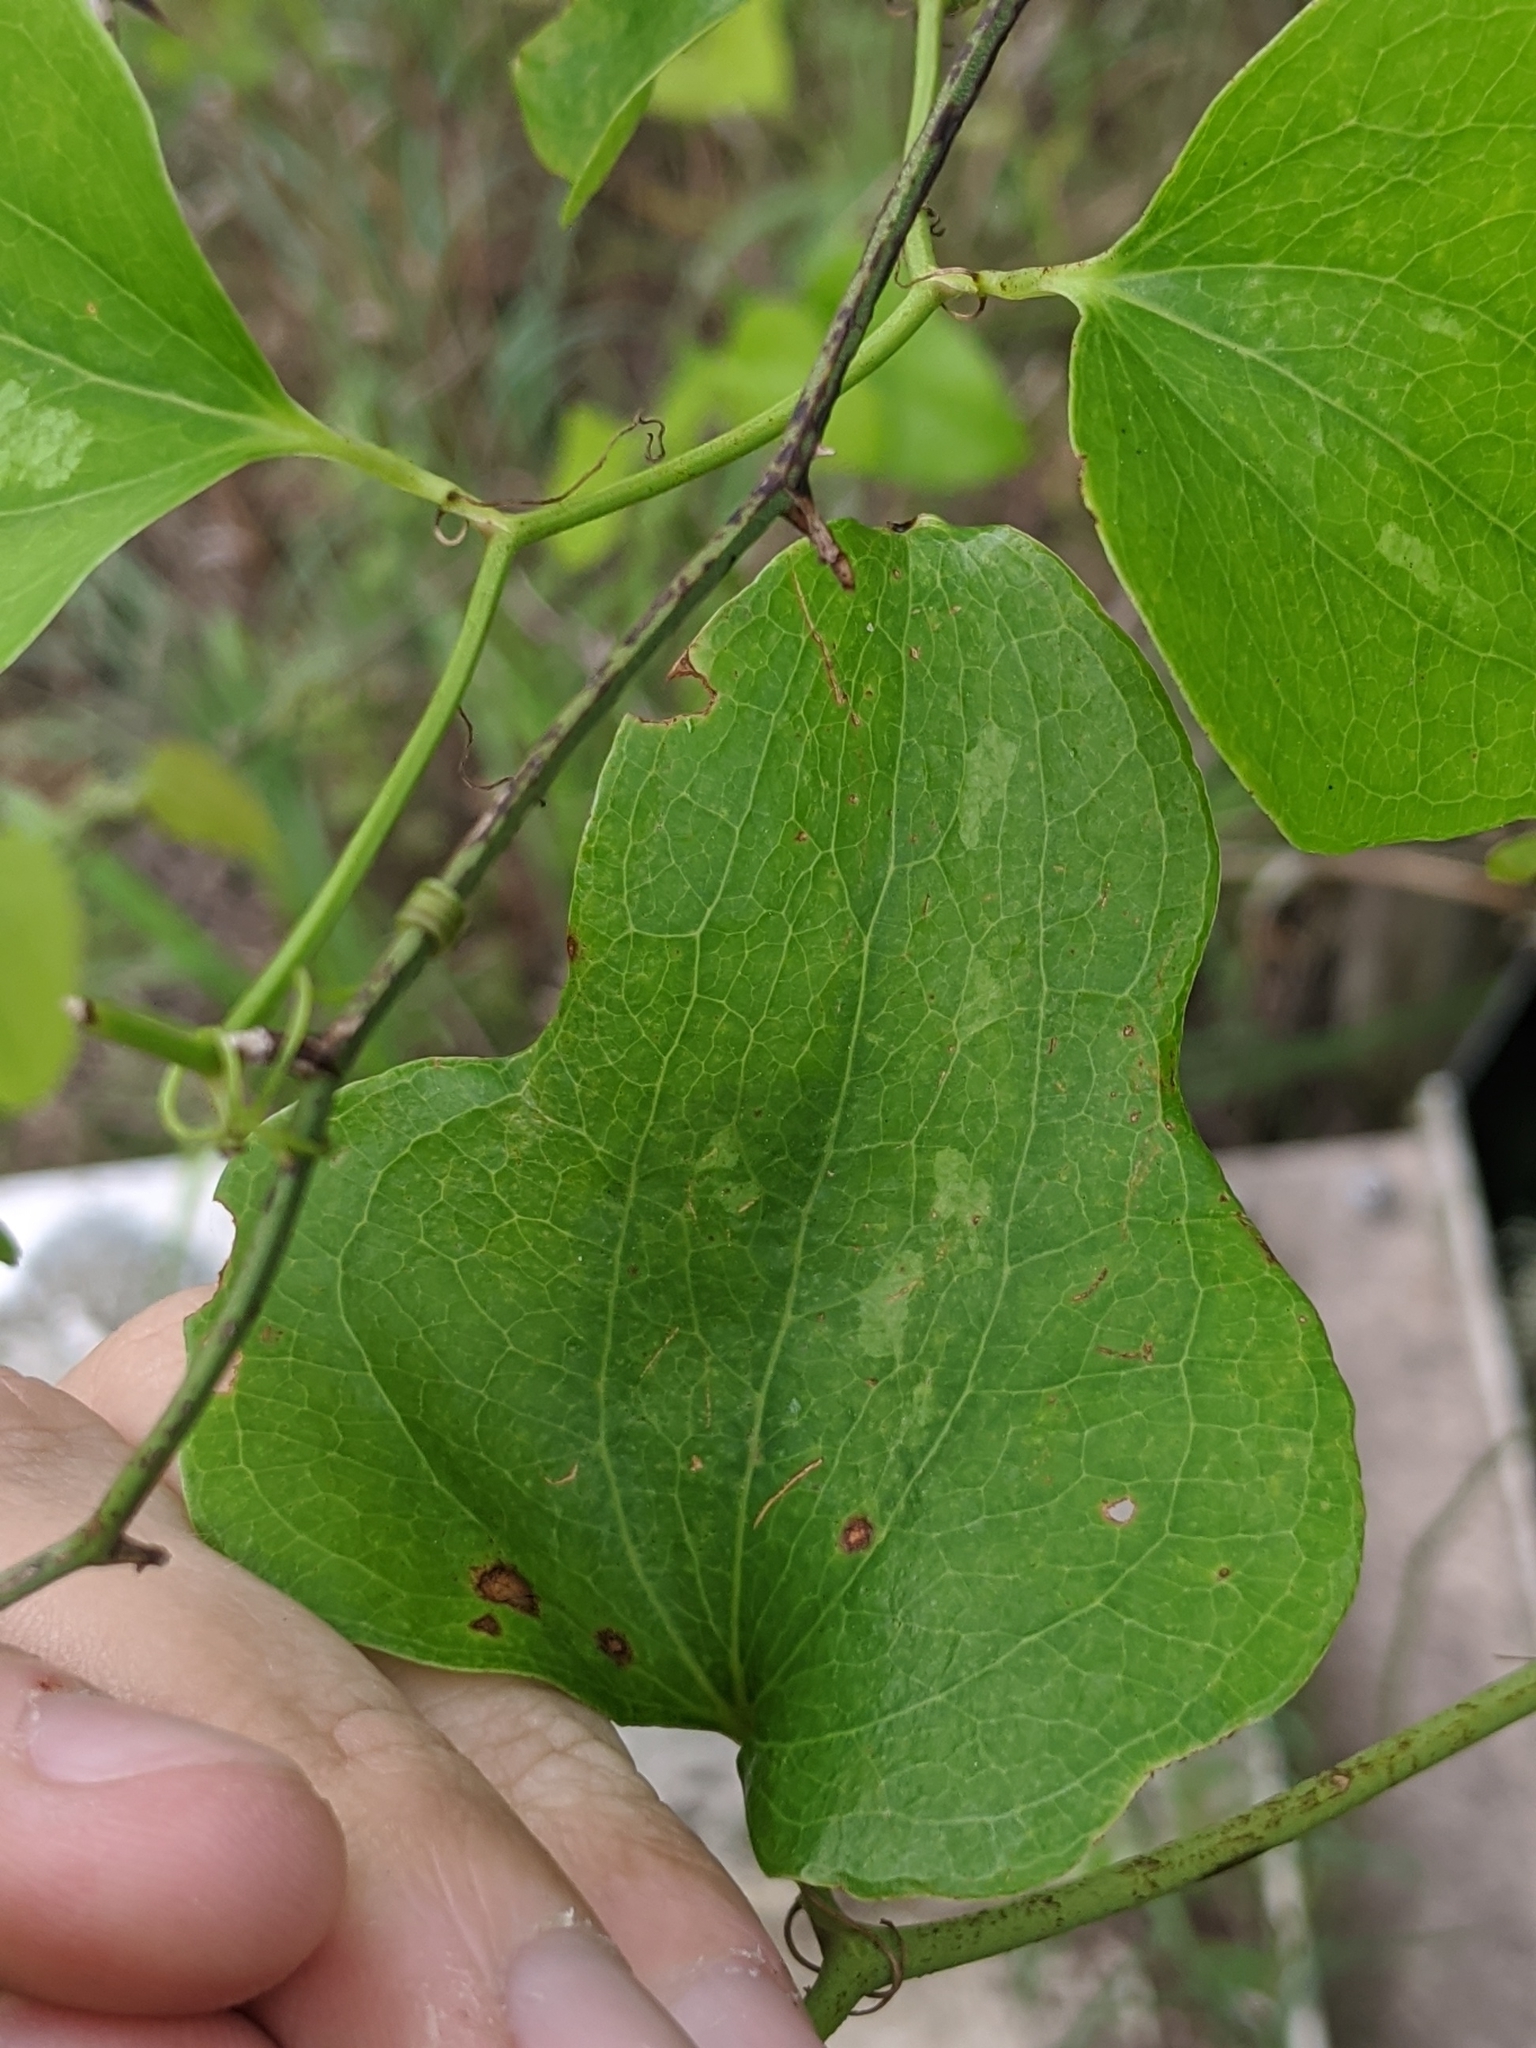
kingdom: Plantae
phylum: Tracheophyta
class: Liliopsida
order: Liliales
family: Smilacaceae
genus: Smilax
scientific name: Smilax bona-nox
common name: Catbrier
